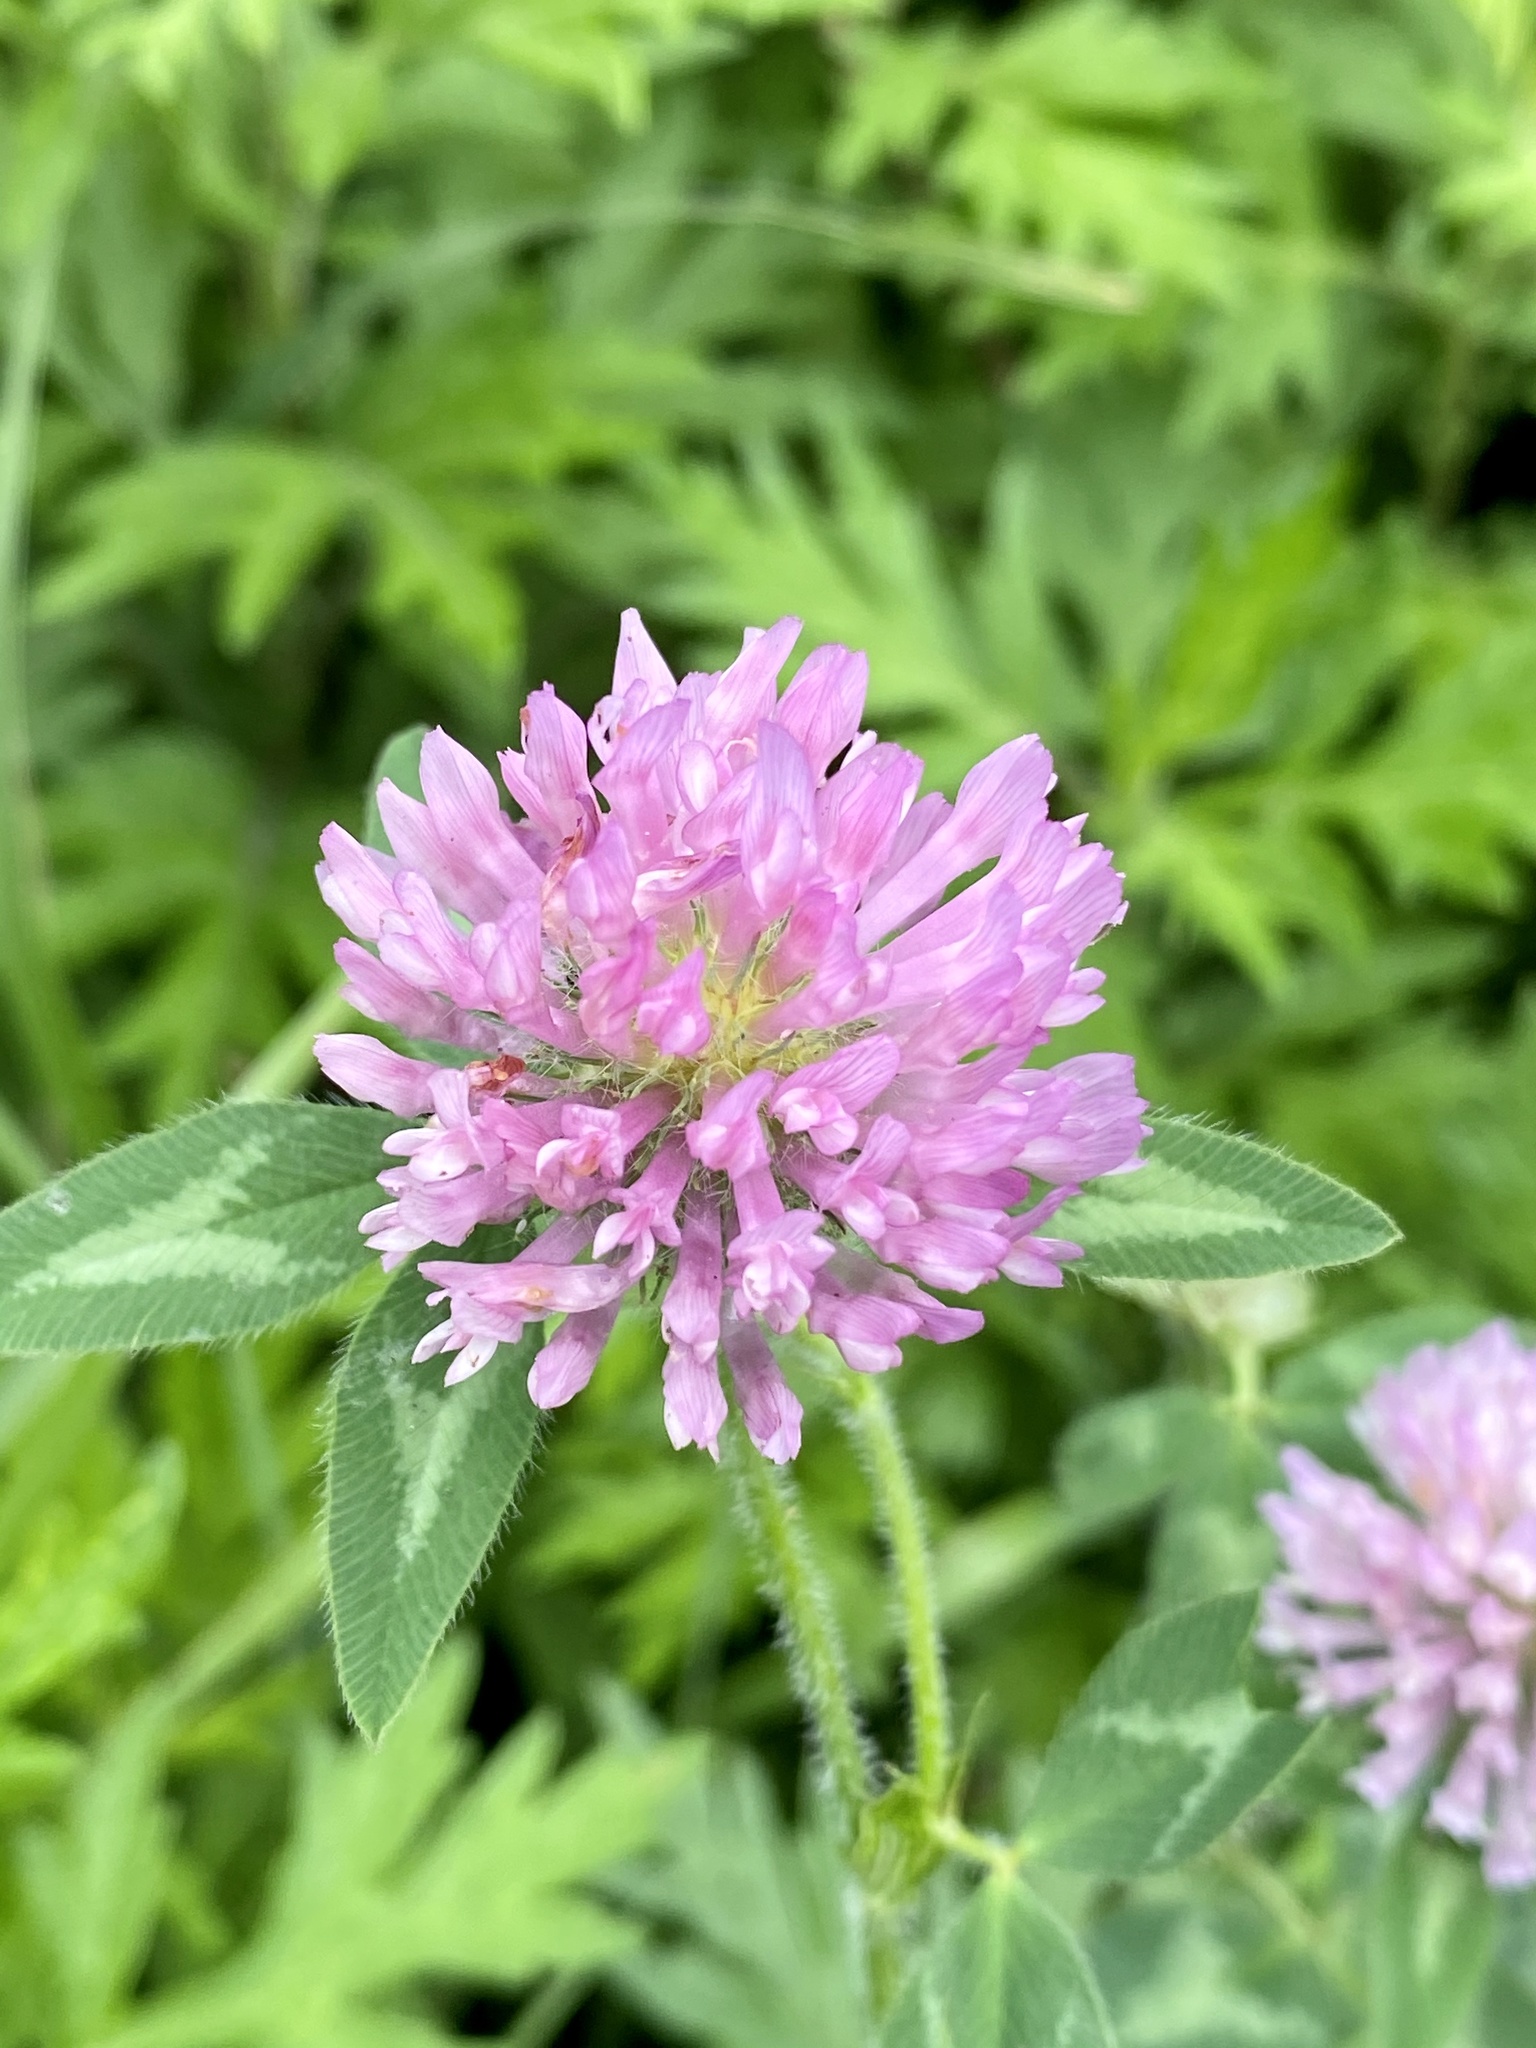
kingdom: Plantae
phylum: Tracheophyta
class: Magnoliopsida
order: Fabales
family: Fabaceae
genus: Trifolium
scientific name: Trifolium pratense
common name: Red clover
